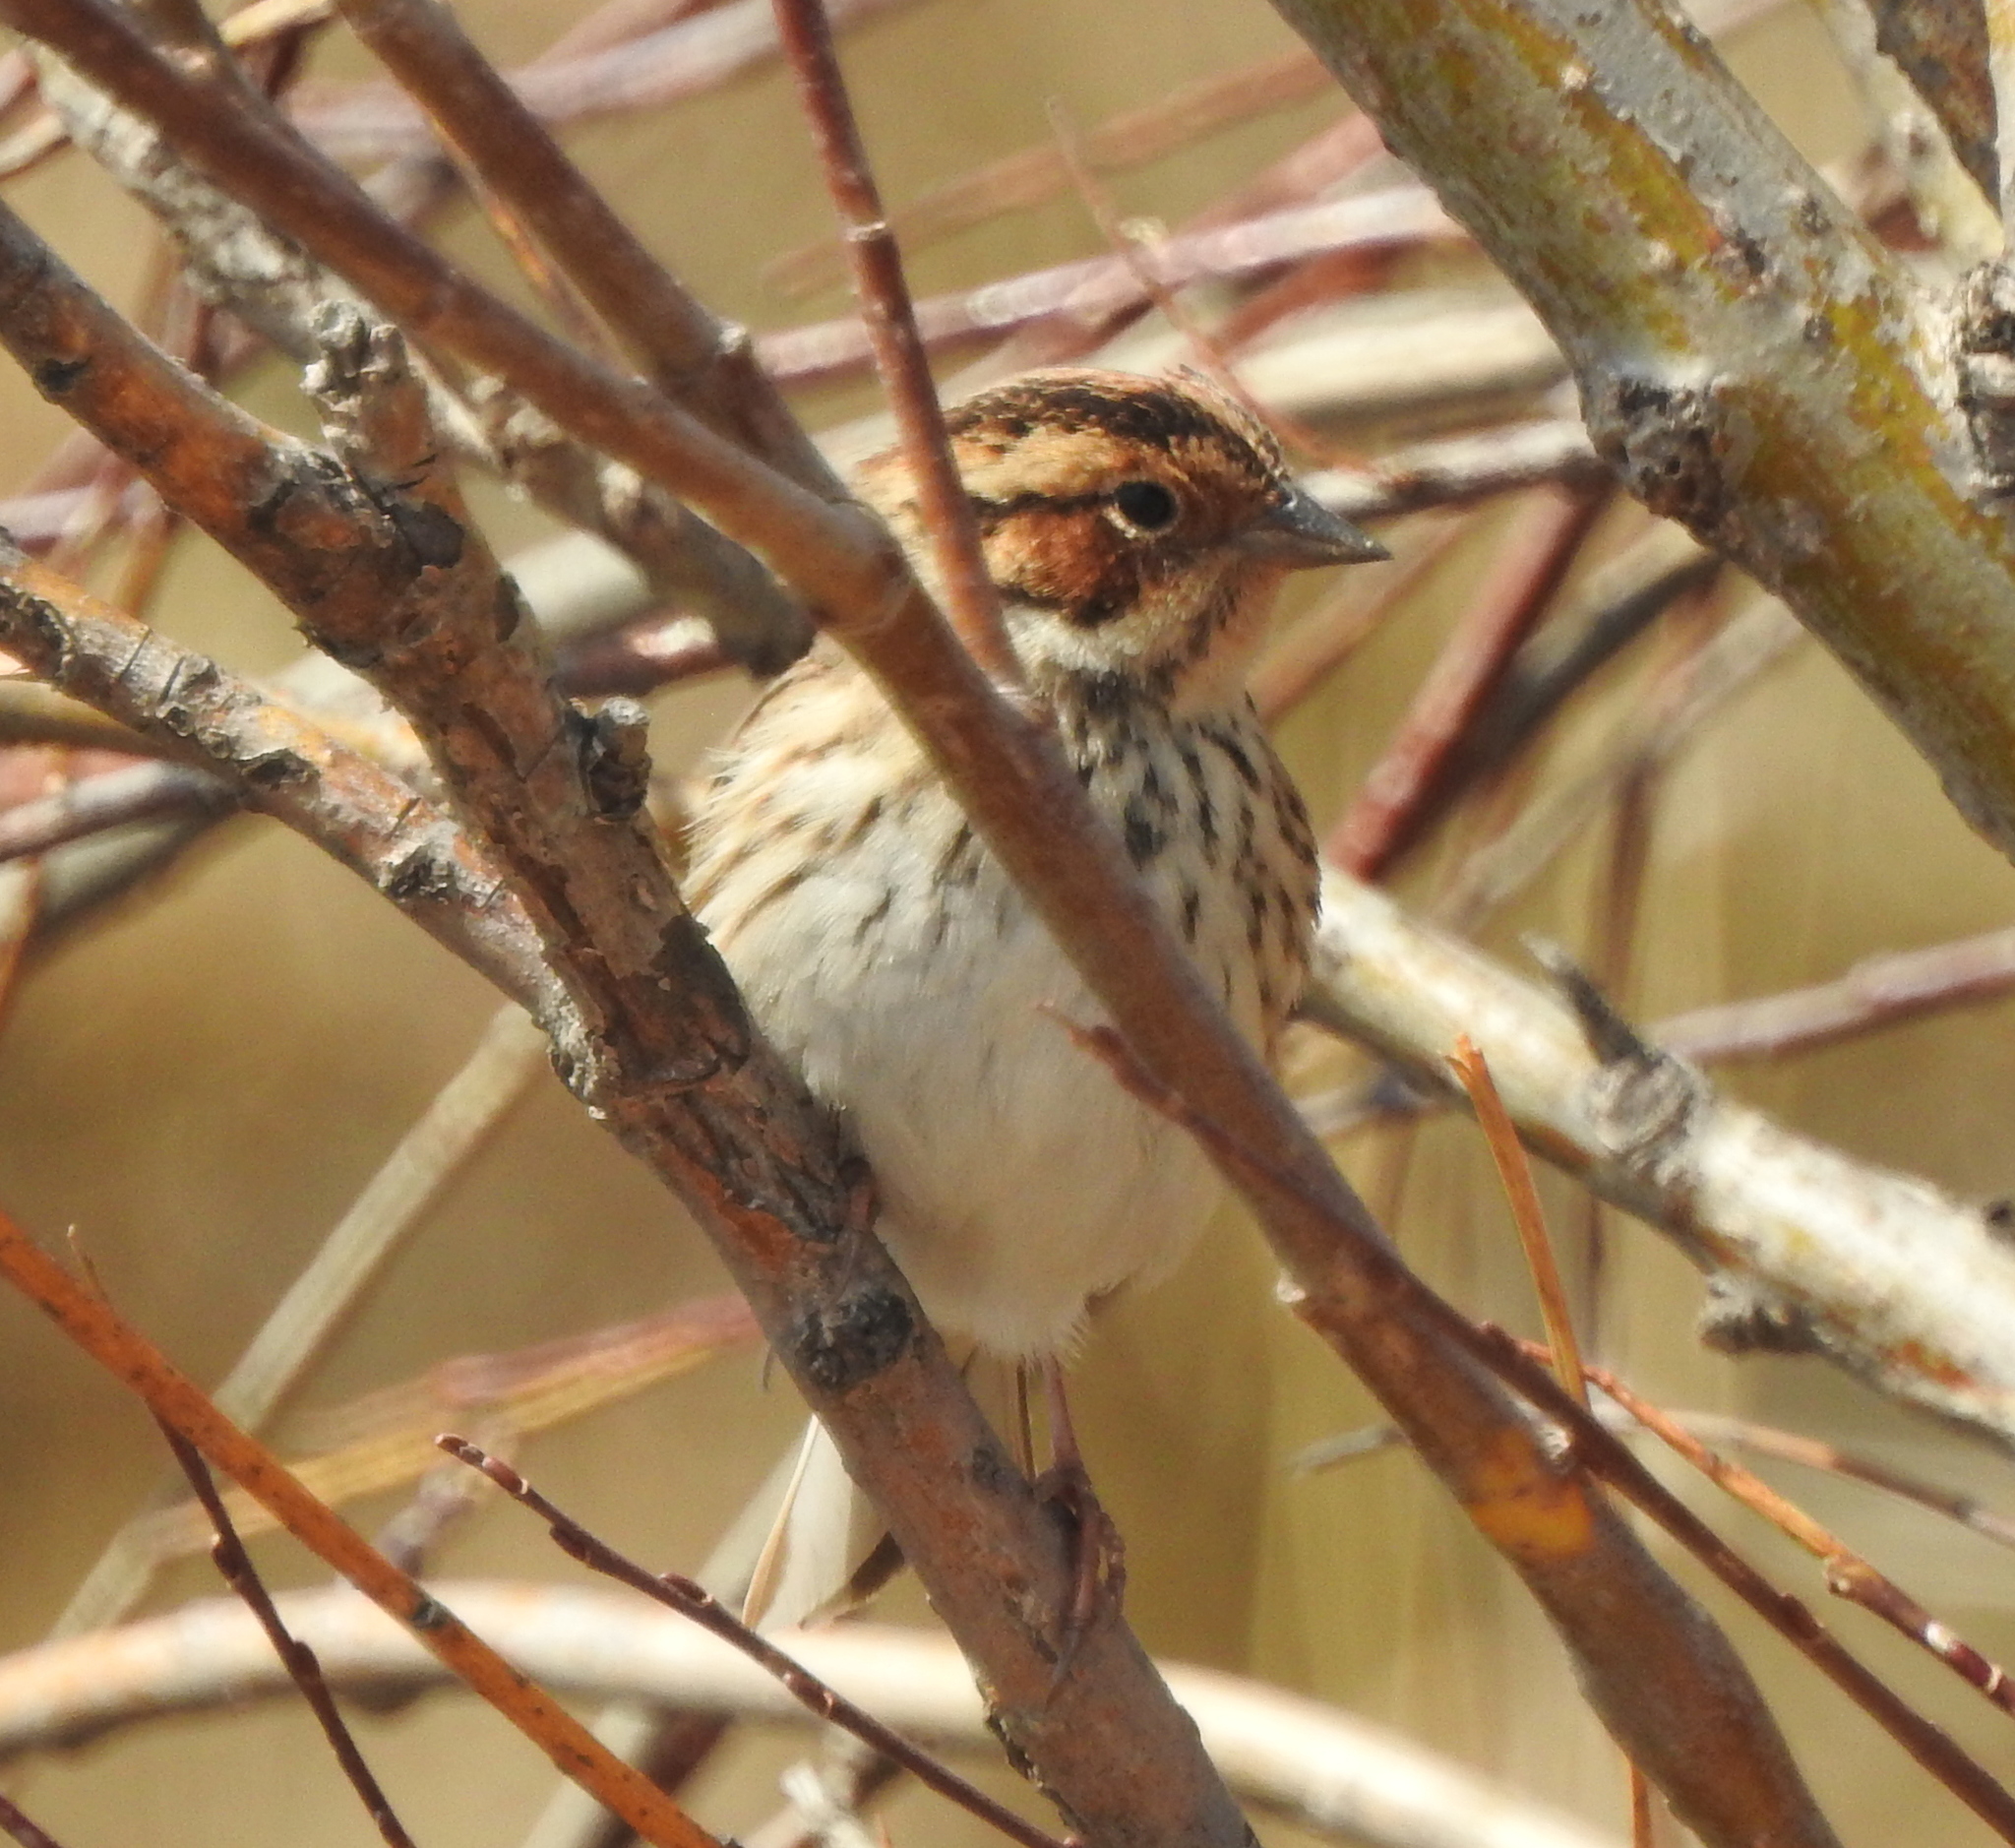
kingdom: Animalia
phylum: Chordata
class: Aves
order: Passeriformes
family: Emberizidae
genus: Emberiza
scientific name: Emberiza pusilla
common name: Little bunting
